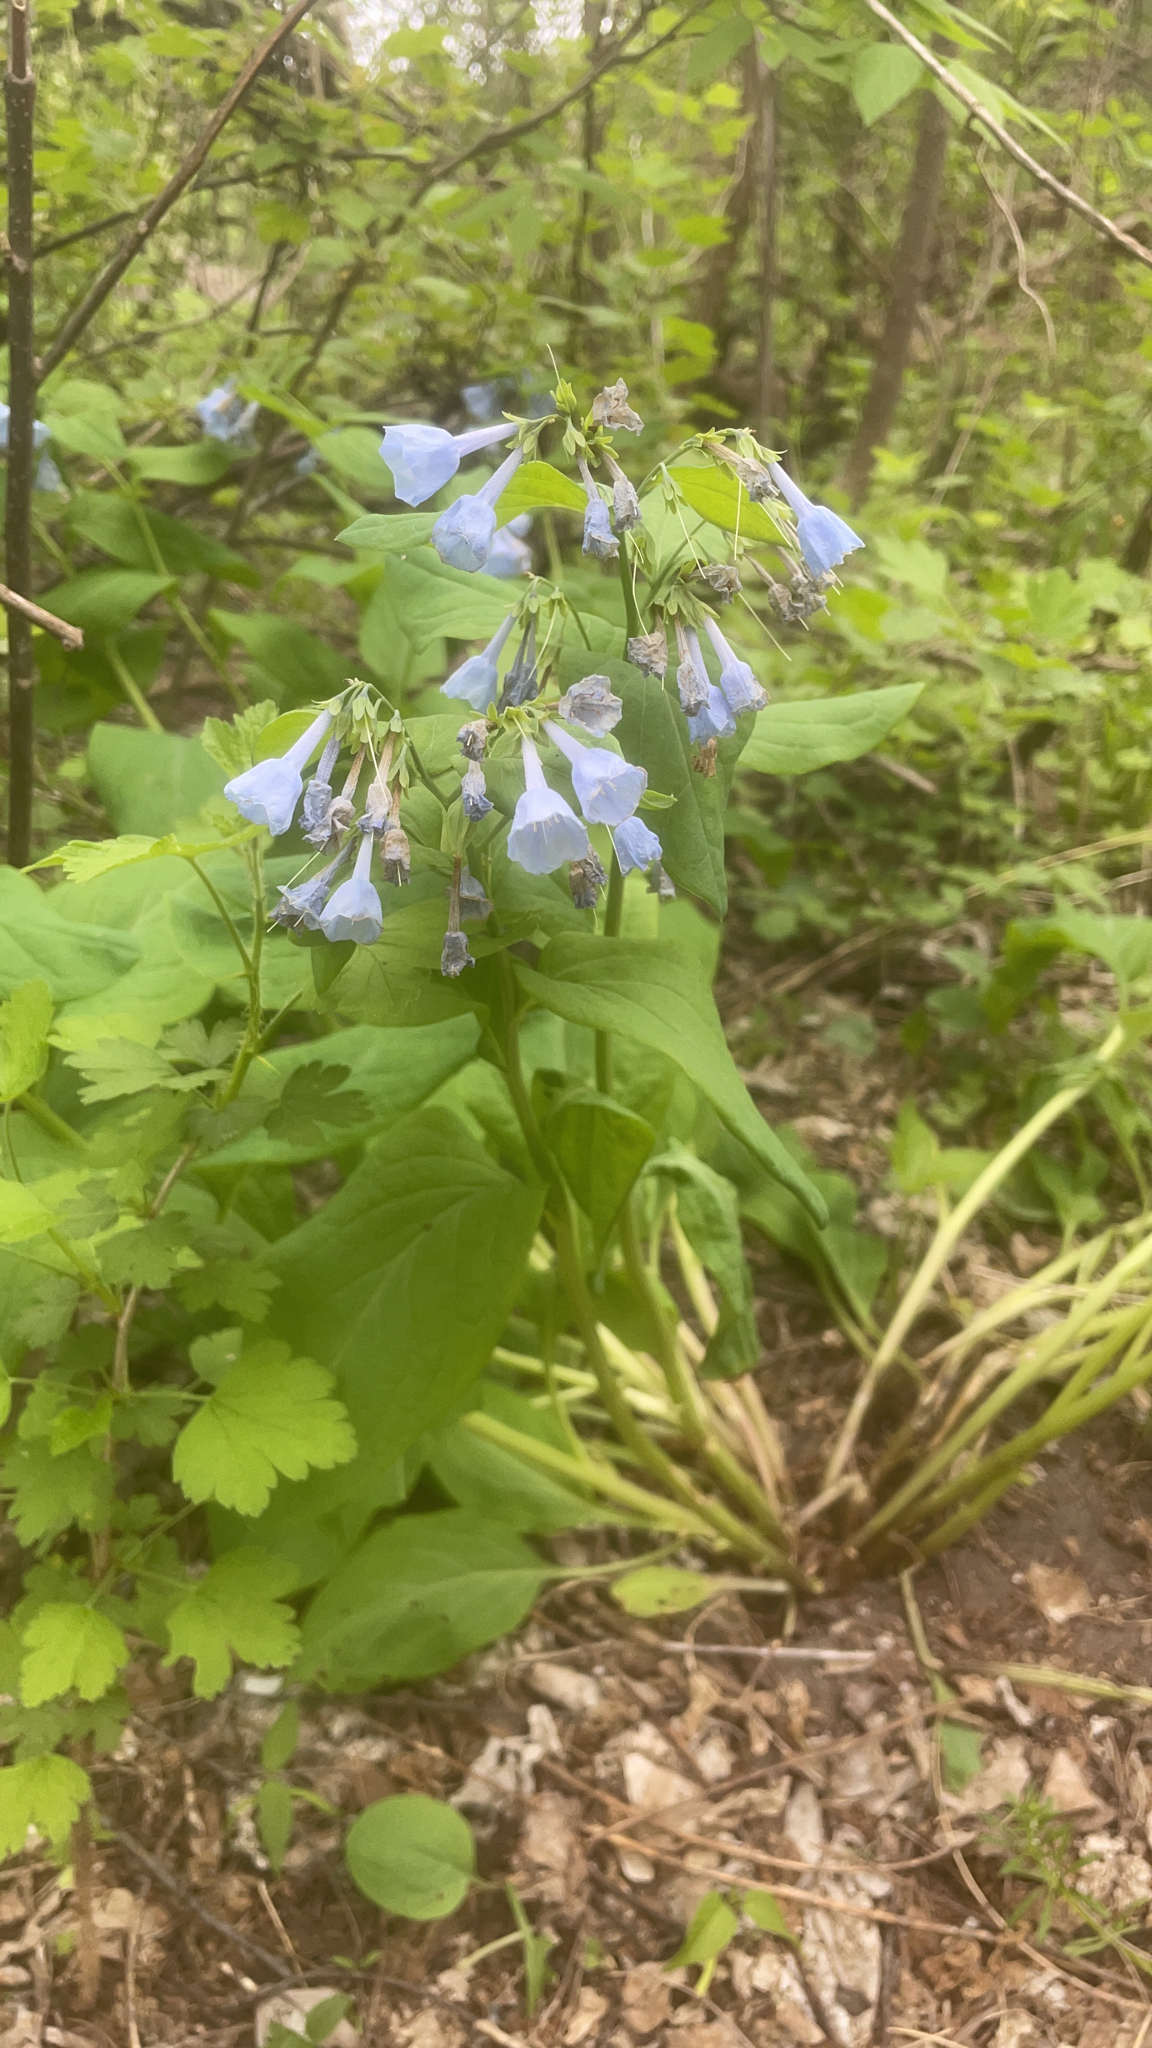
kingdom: Plantae
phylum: Tracheophyta
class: Magnoliopsida
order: Boraginales
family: Boraginaceae
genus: Mertensia
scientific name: Mertensia virginica
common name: Virginia bluebells
